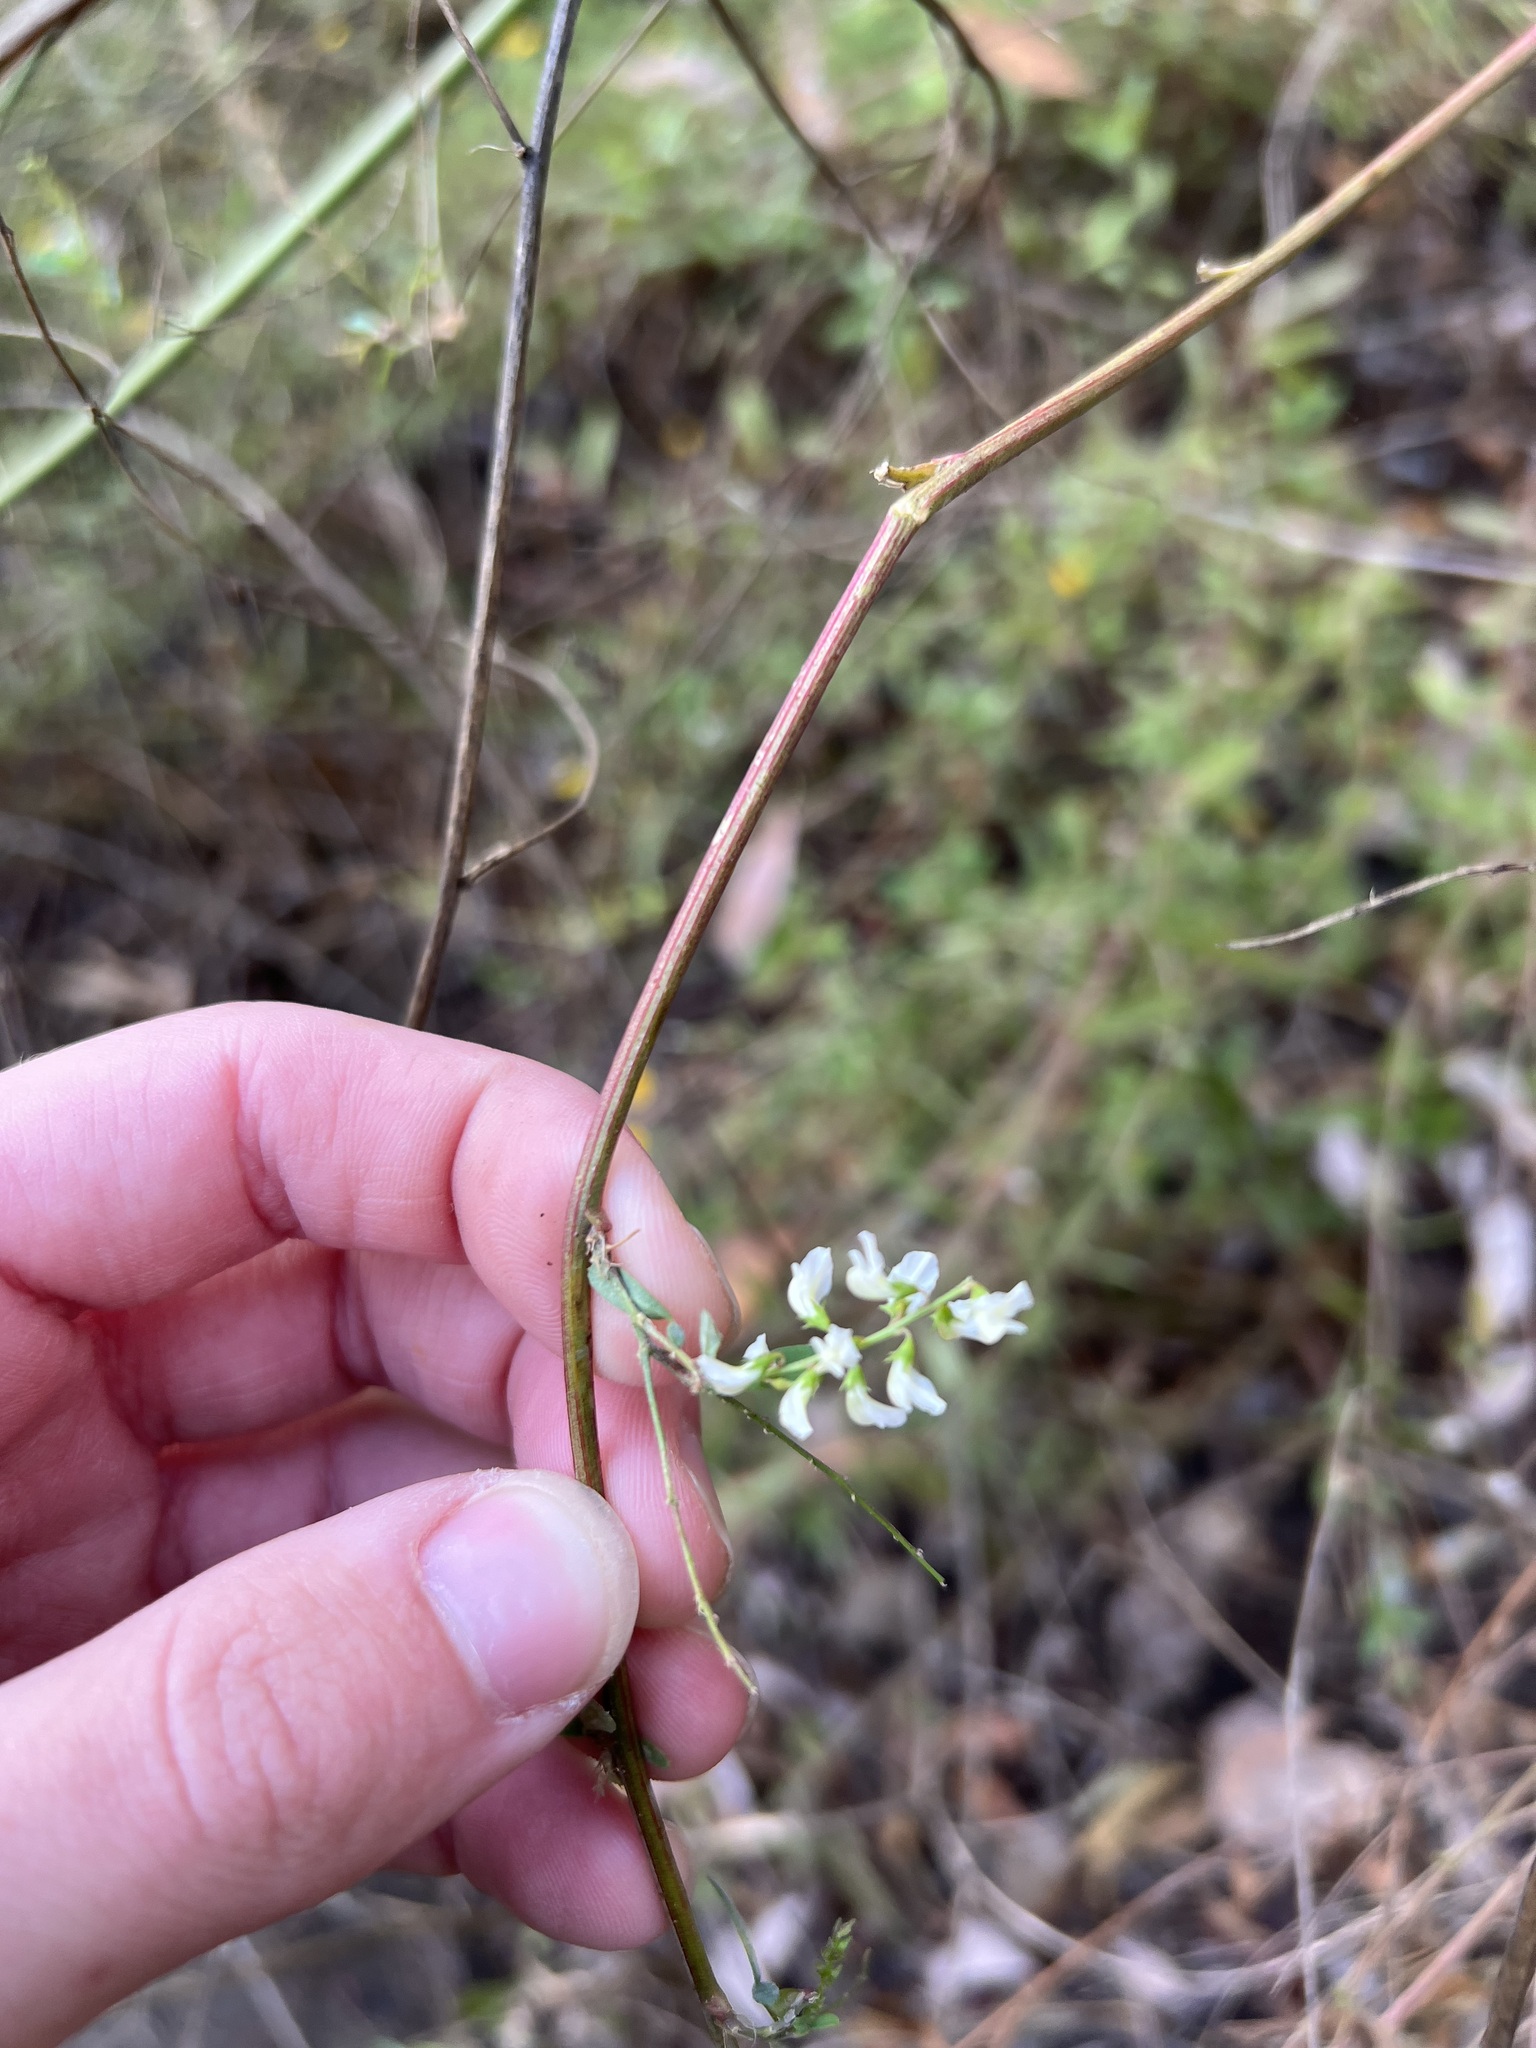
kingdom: Plantae
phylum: Tracheophyta
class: Magnoliopsida
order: Fabales
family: Fabaceae
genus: Melilotus
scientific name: Melilotus albus
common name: White melilot
